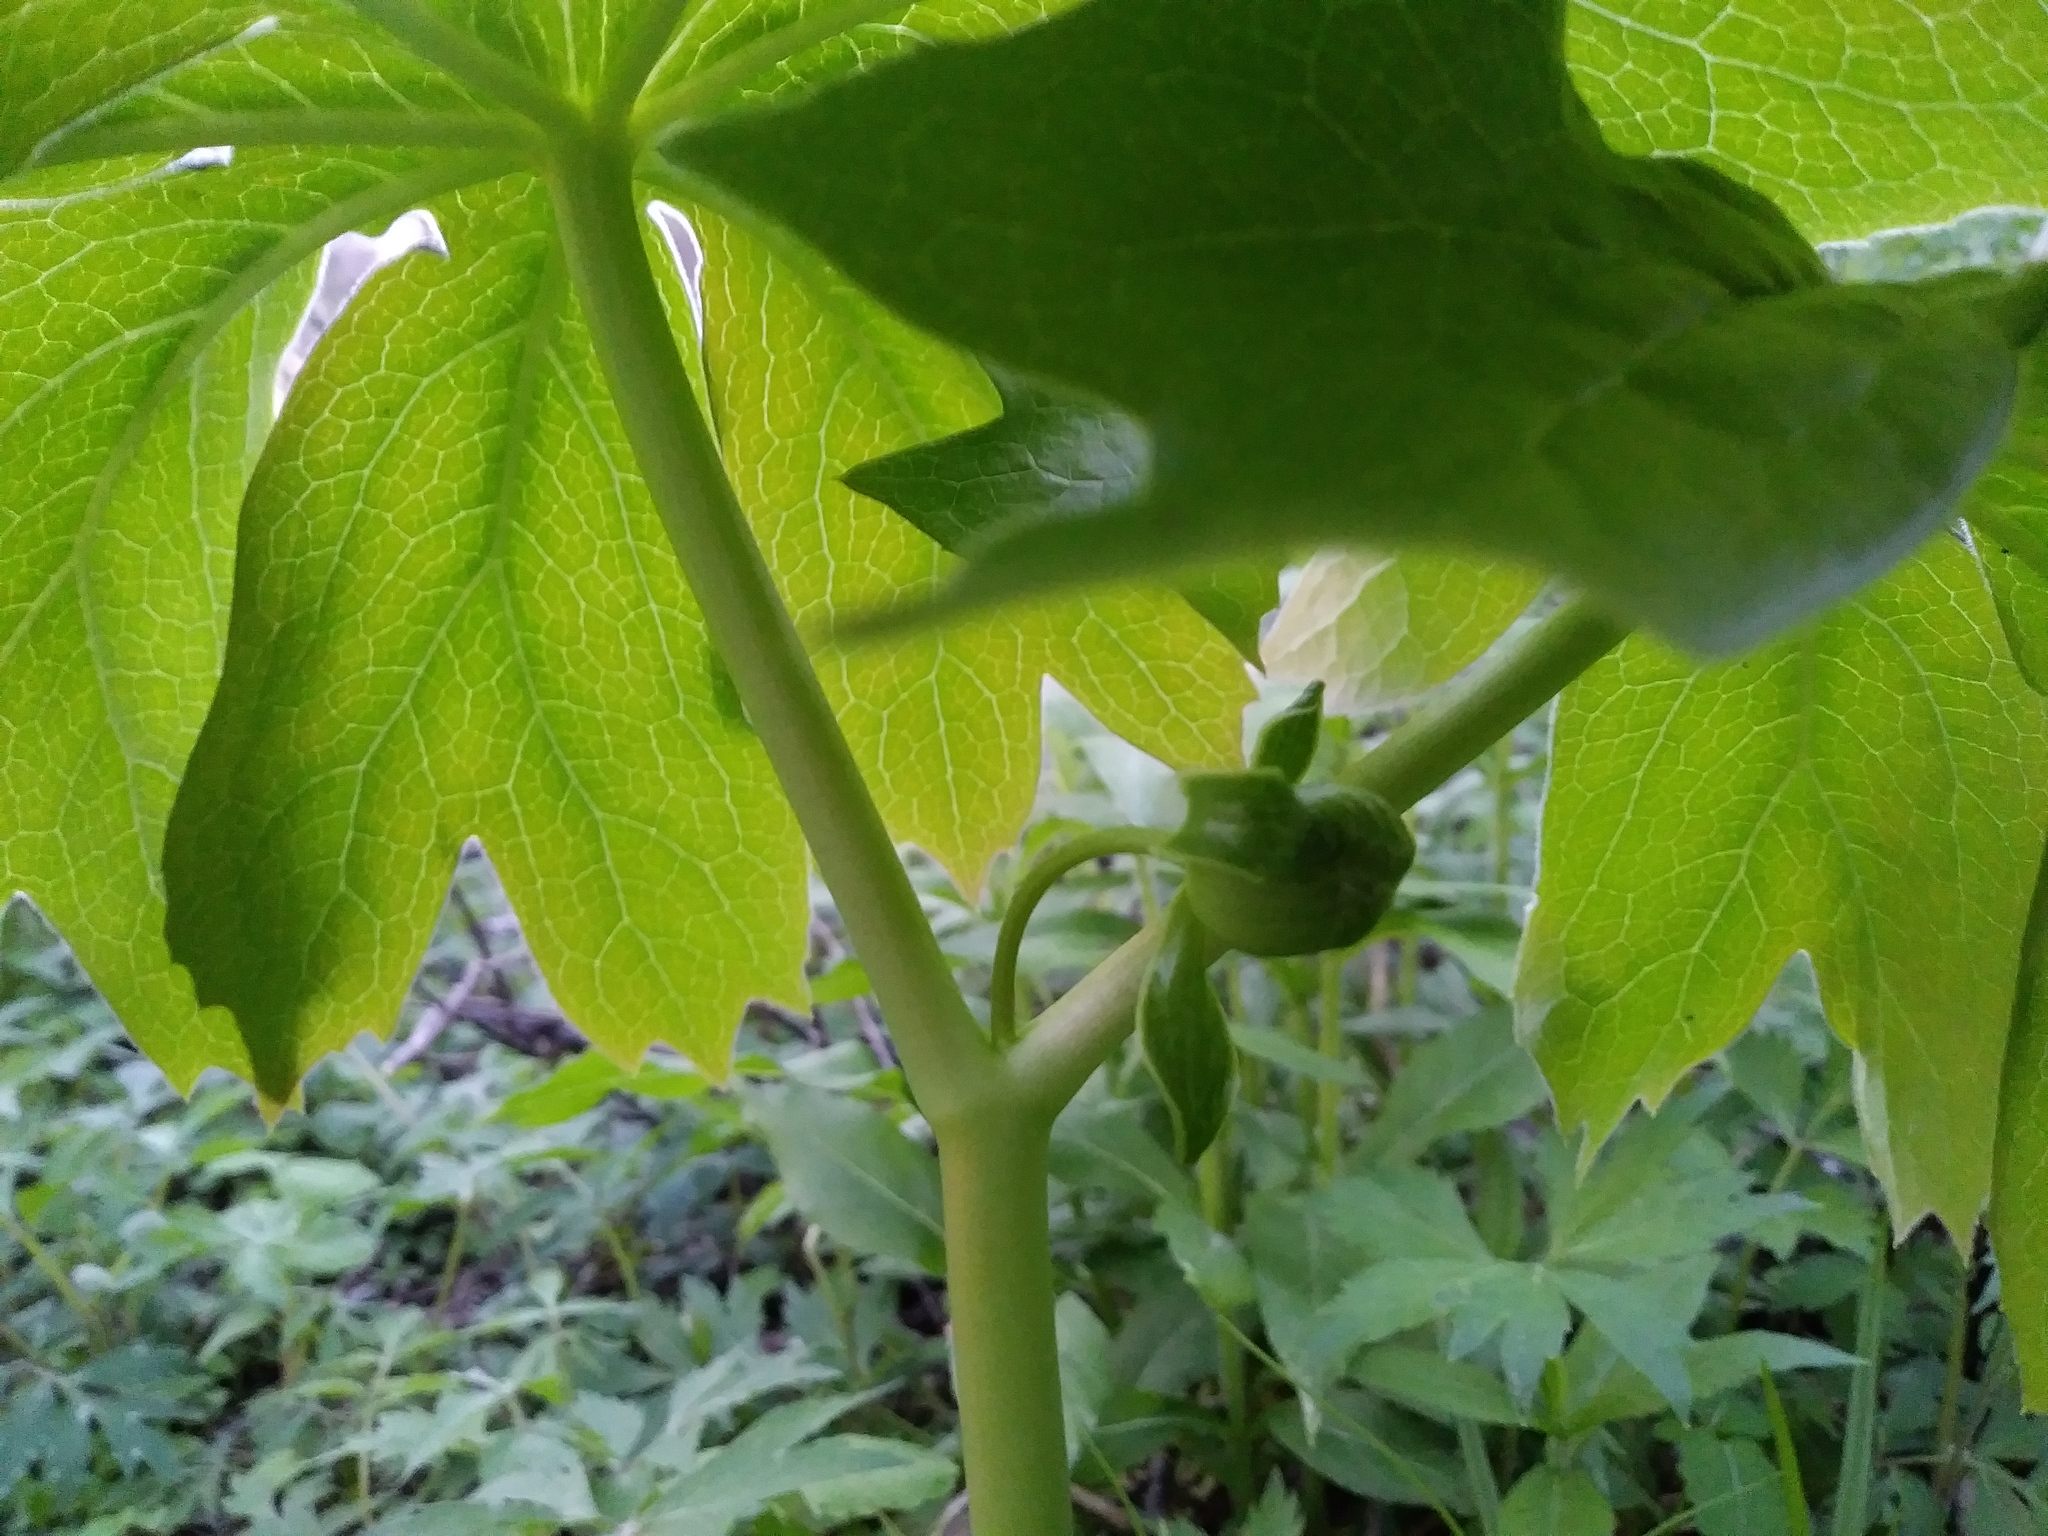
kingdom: Plantae
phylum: Tracheophyta
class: Magnoliopsida
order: Ranunculales
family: Berberidaceae
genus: Podophyllum
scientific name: Podophyllum peltatum
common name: Wild mandrake
